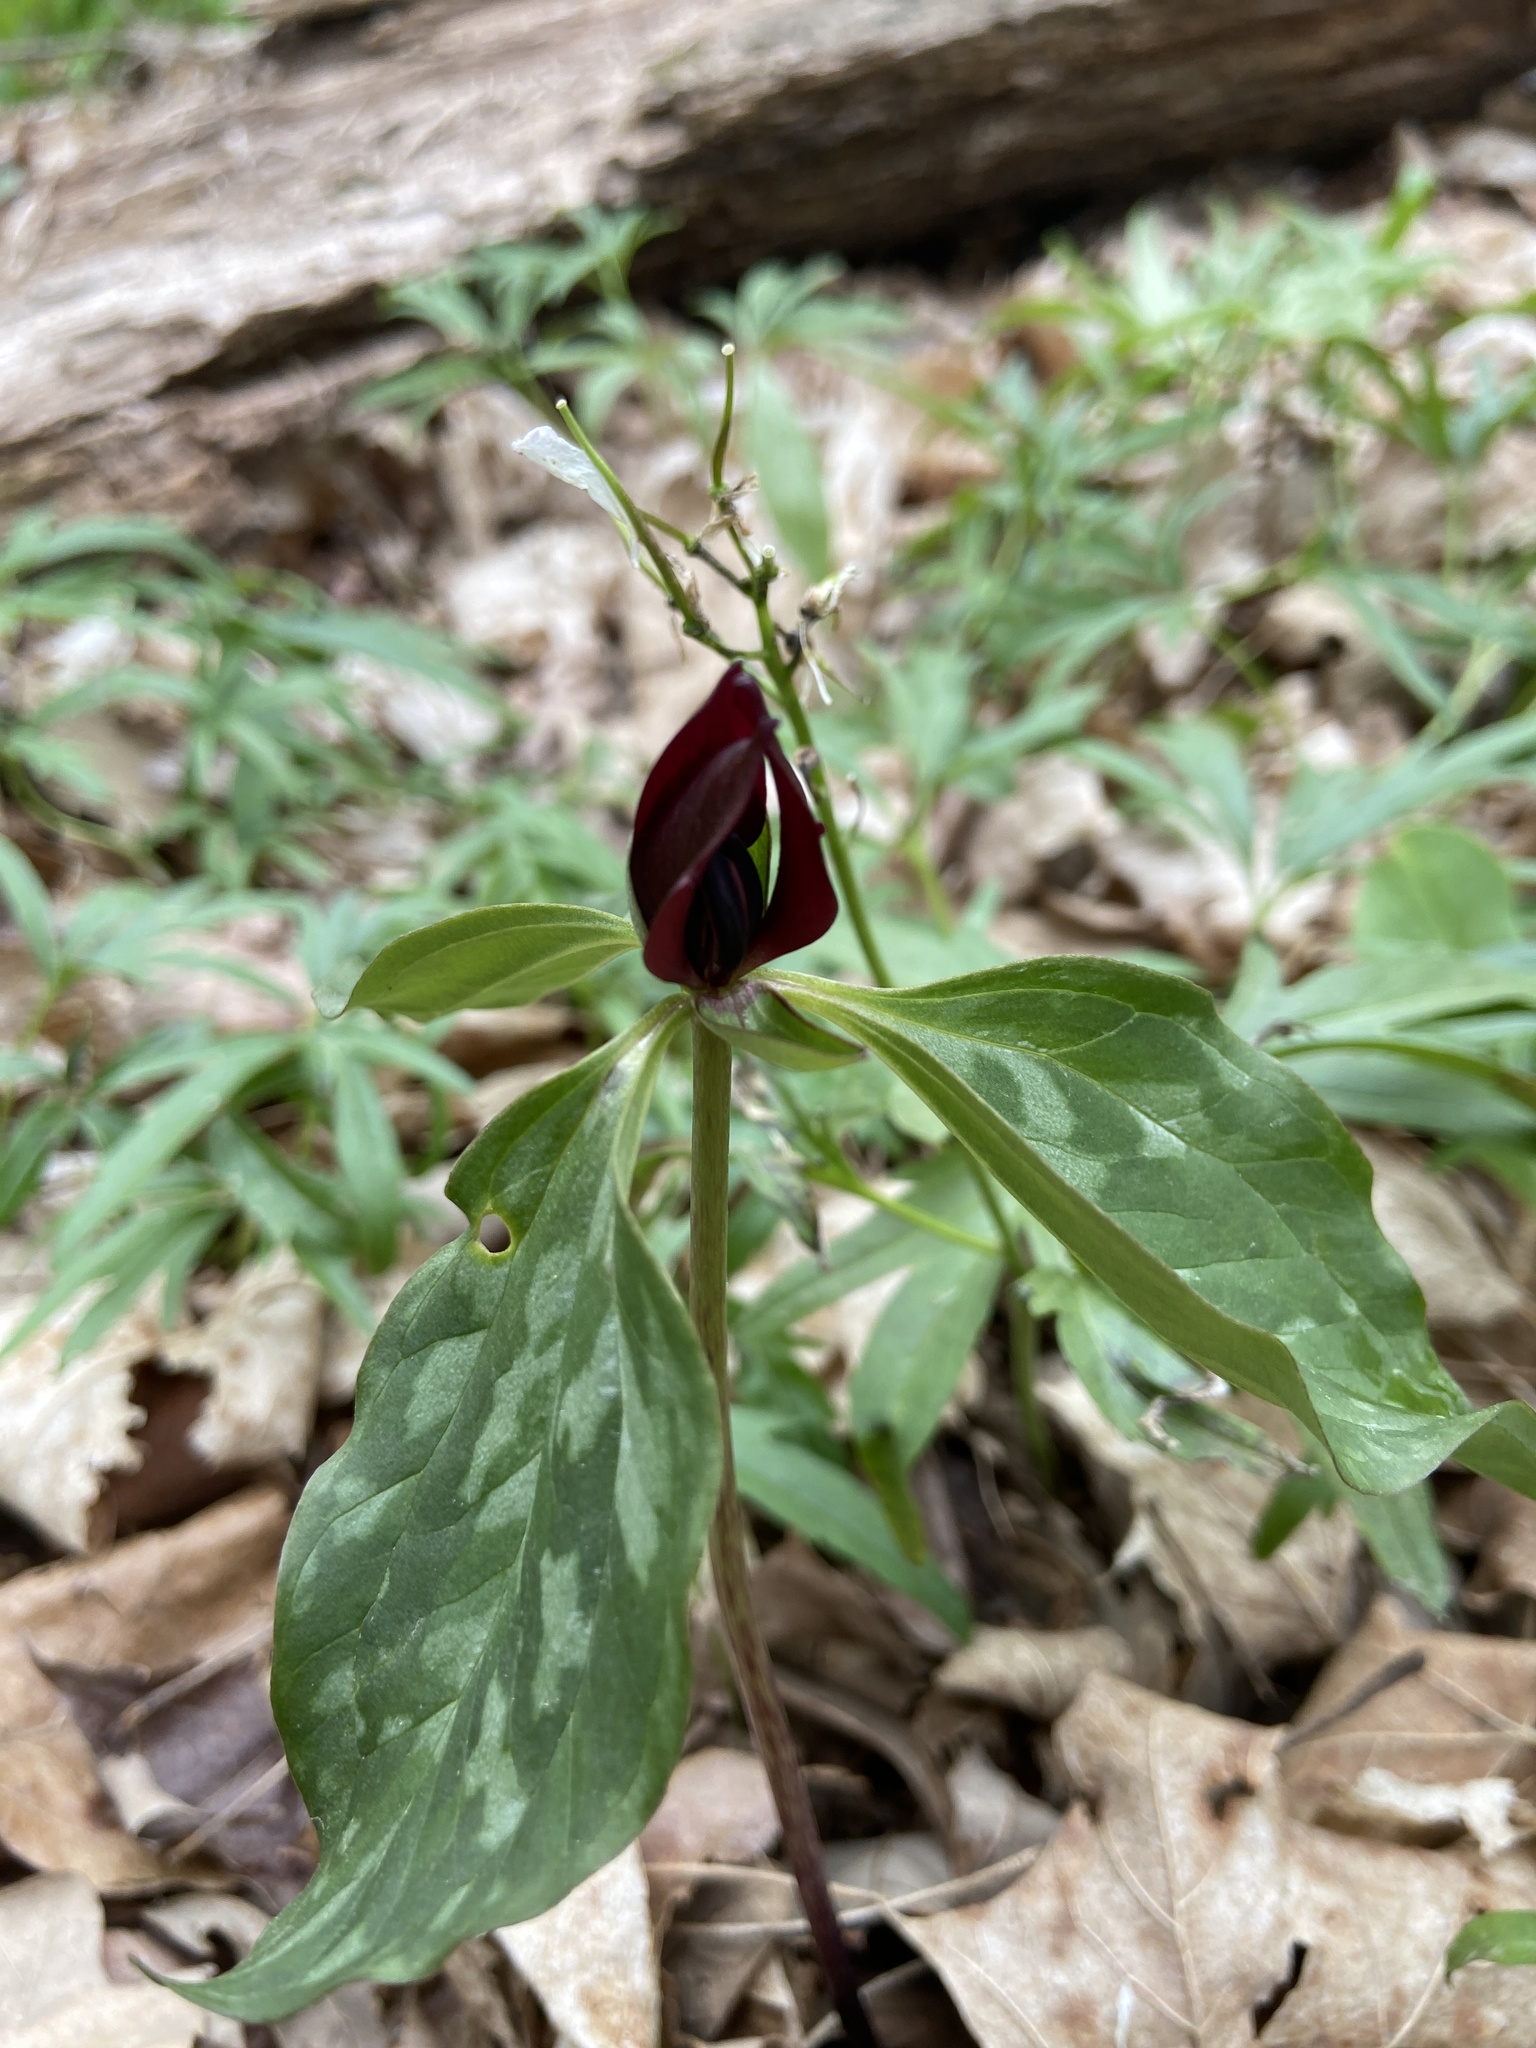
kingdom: Plantae
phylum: Tracheophyta
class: Liliopsida
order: Liliales
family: Melanthiaceae
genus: Trillium
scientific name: Trillium recurvatum
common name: Bloody butcher
